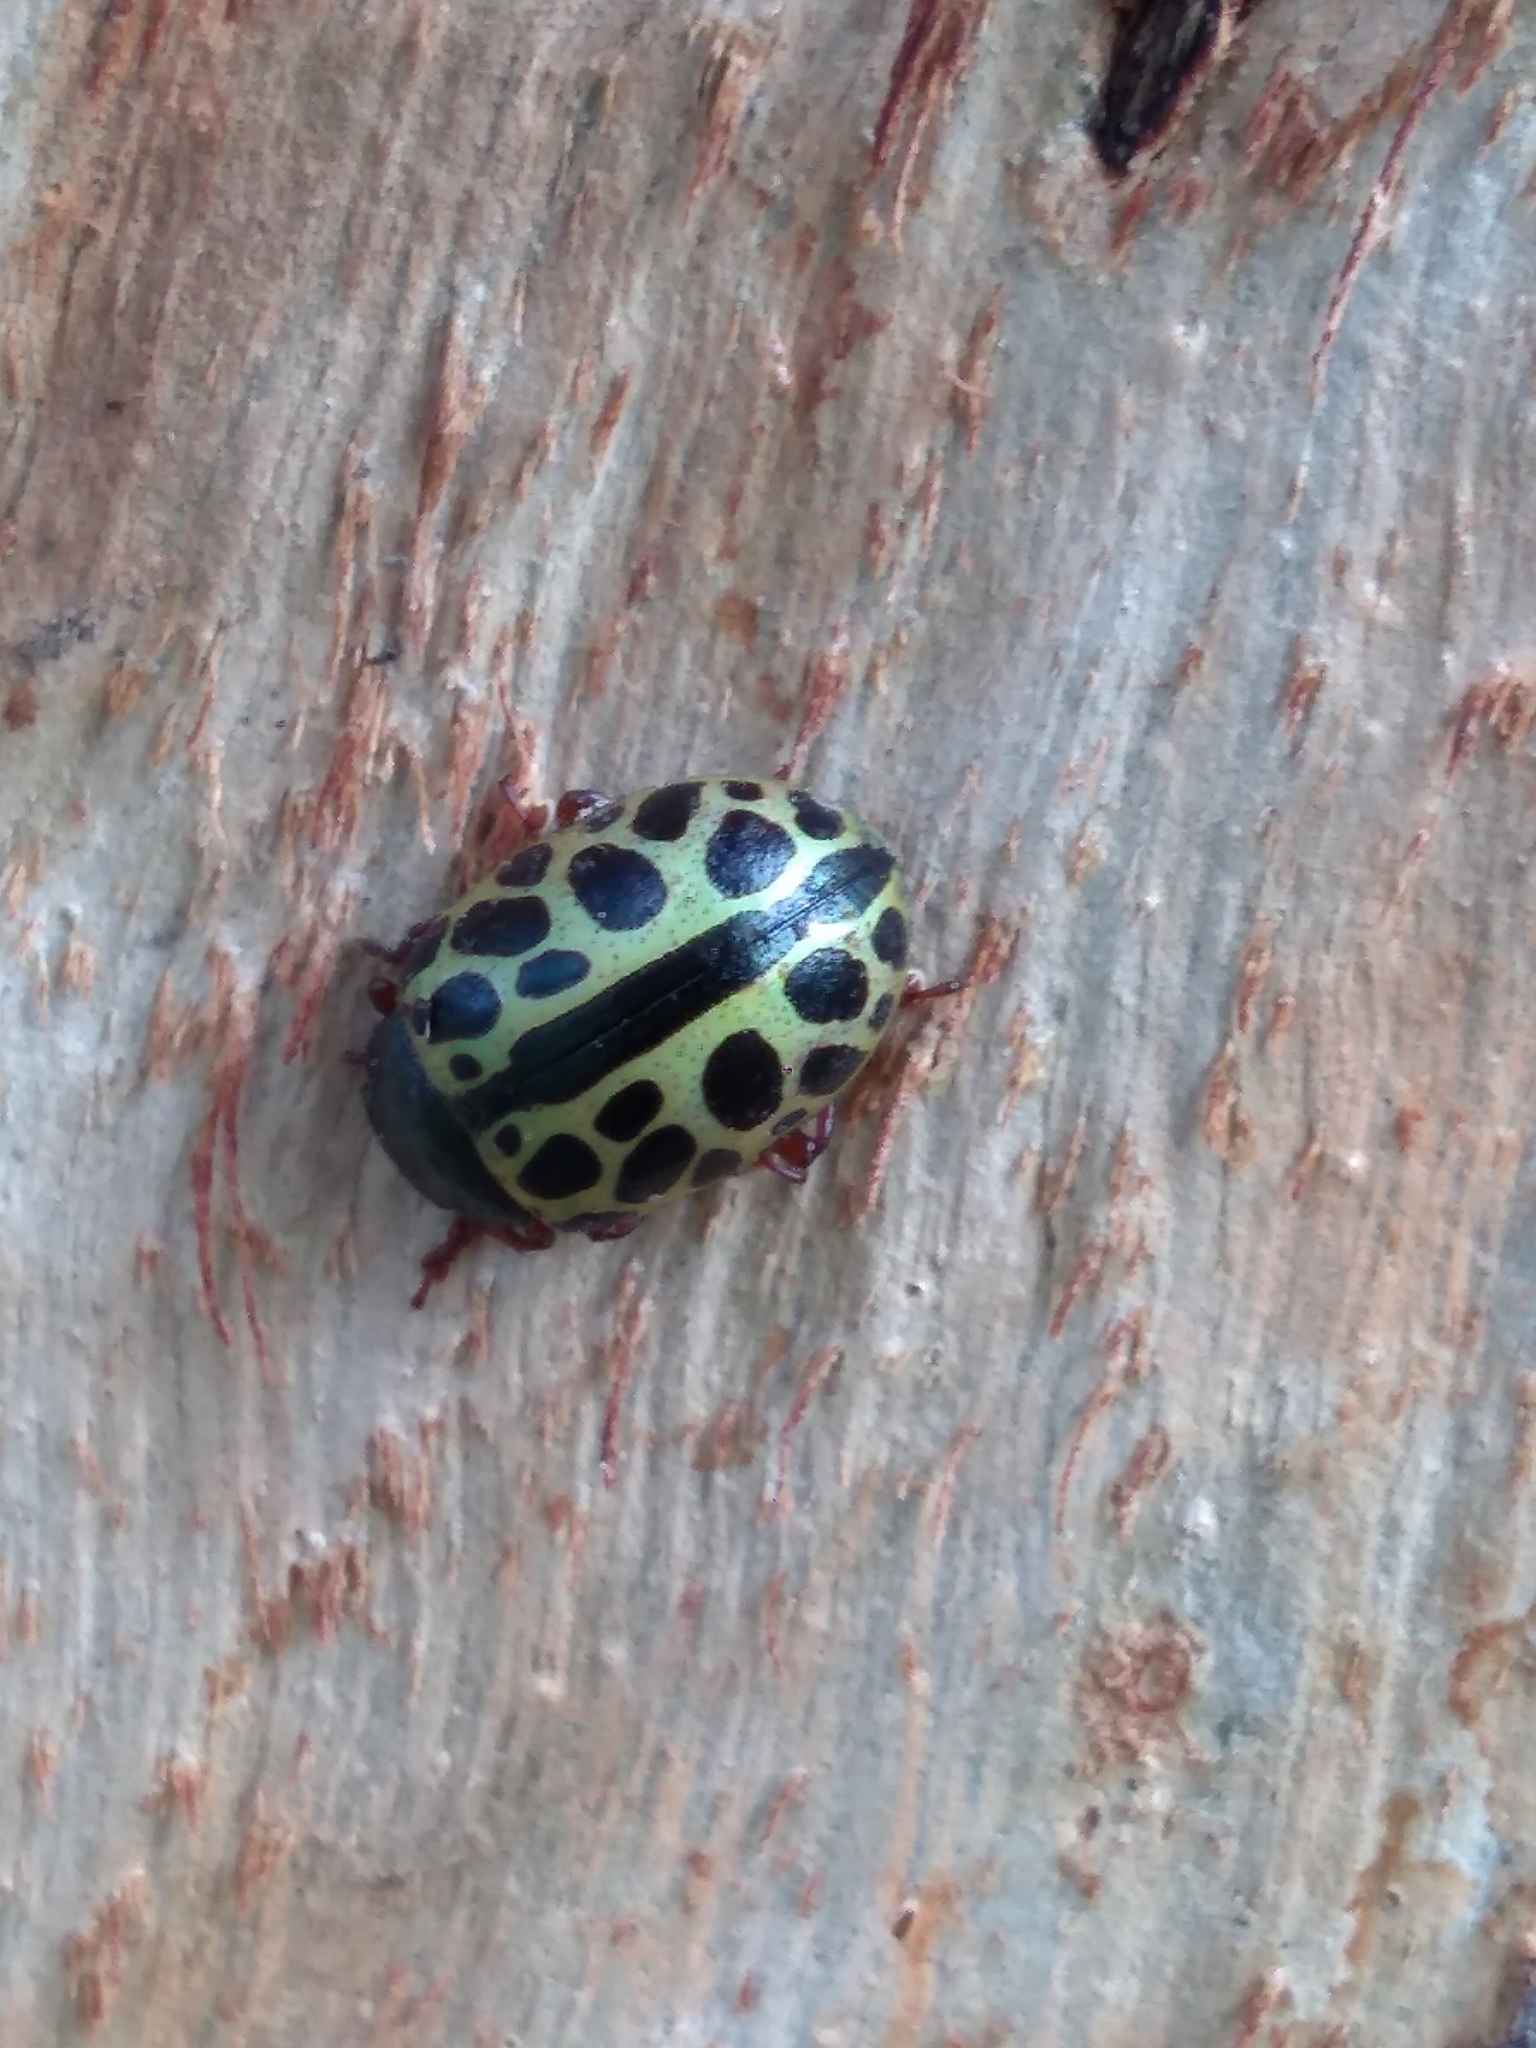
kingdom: Animalia
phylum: Arthropoda
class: Insecta
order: Coleoptera
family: Chrysomelidae
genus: Calligrapha
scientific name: Calligrapha polyspila
